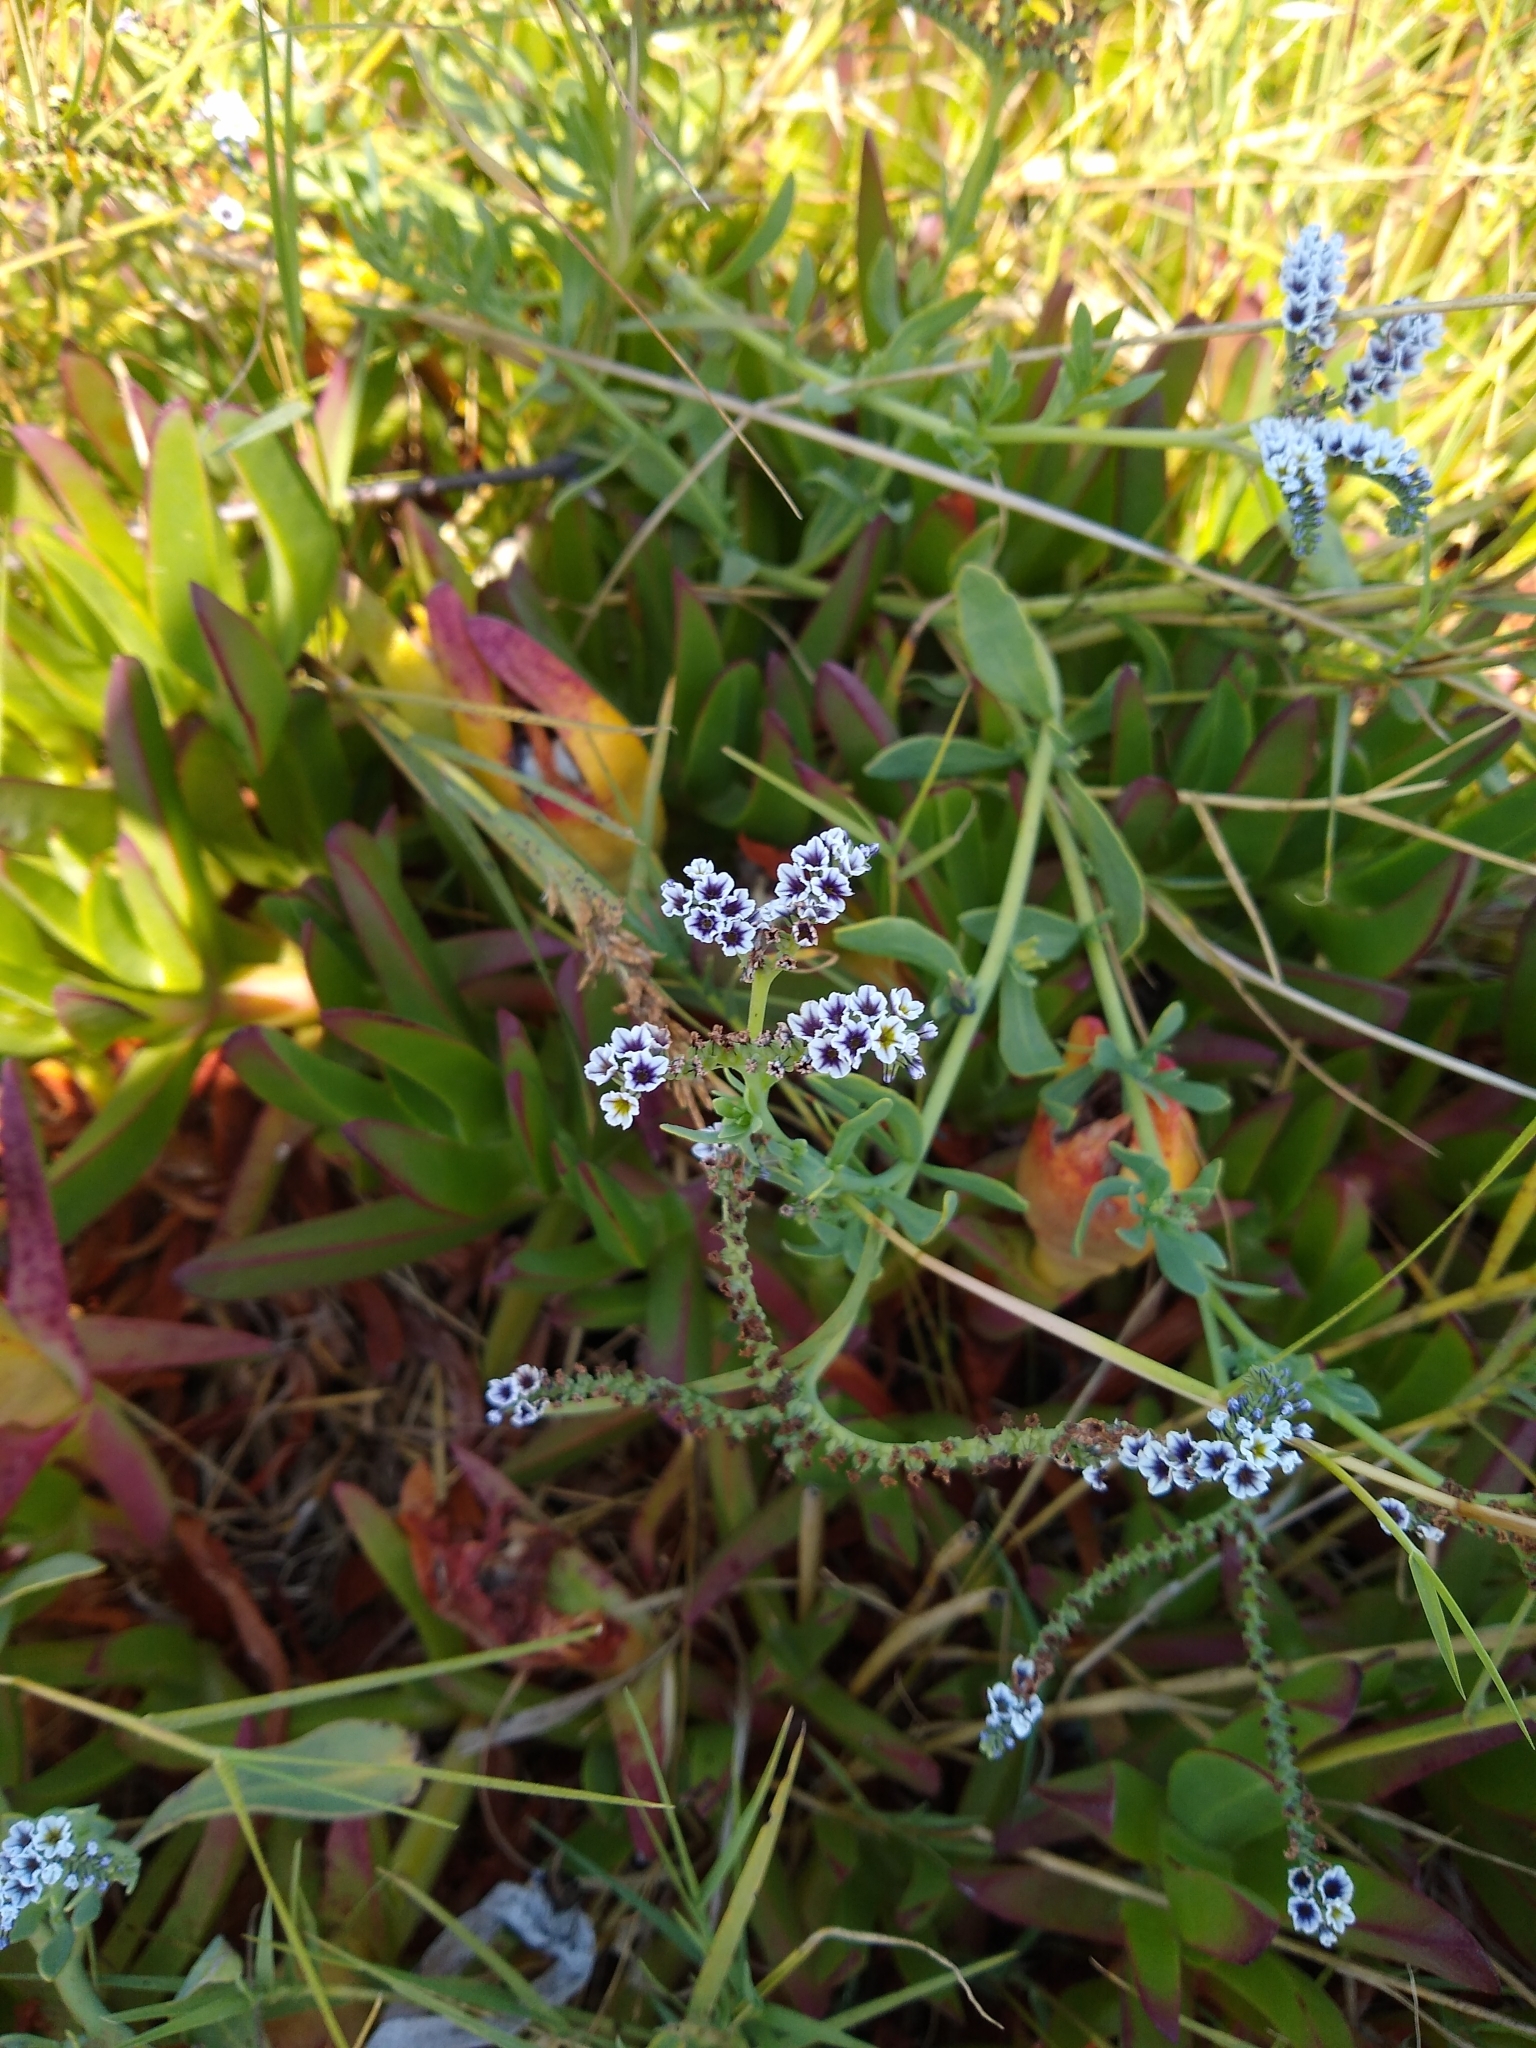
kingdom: Plantae
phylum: Tracheophyta
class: Magnoliopsida
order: Boraginales
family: Heliotropiaceae
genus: Heliotropium
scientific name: Heliotropium curassavicum
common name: Seaside heliotrope
